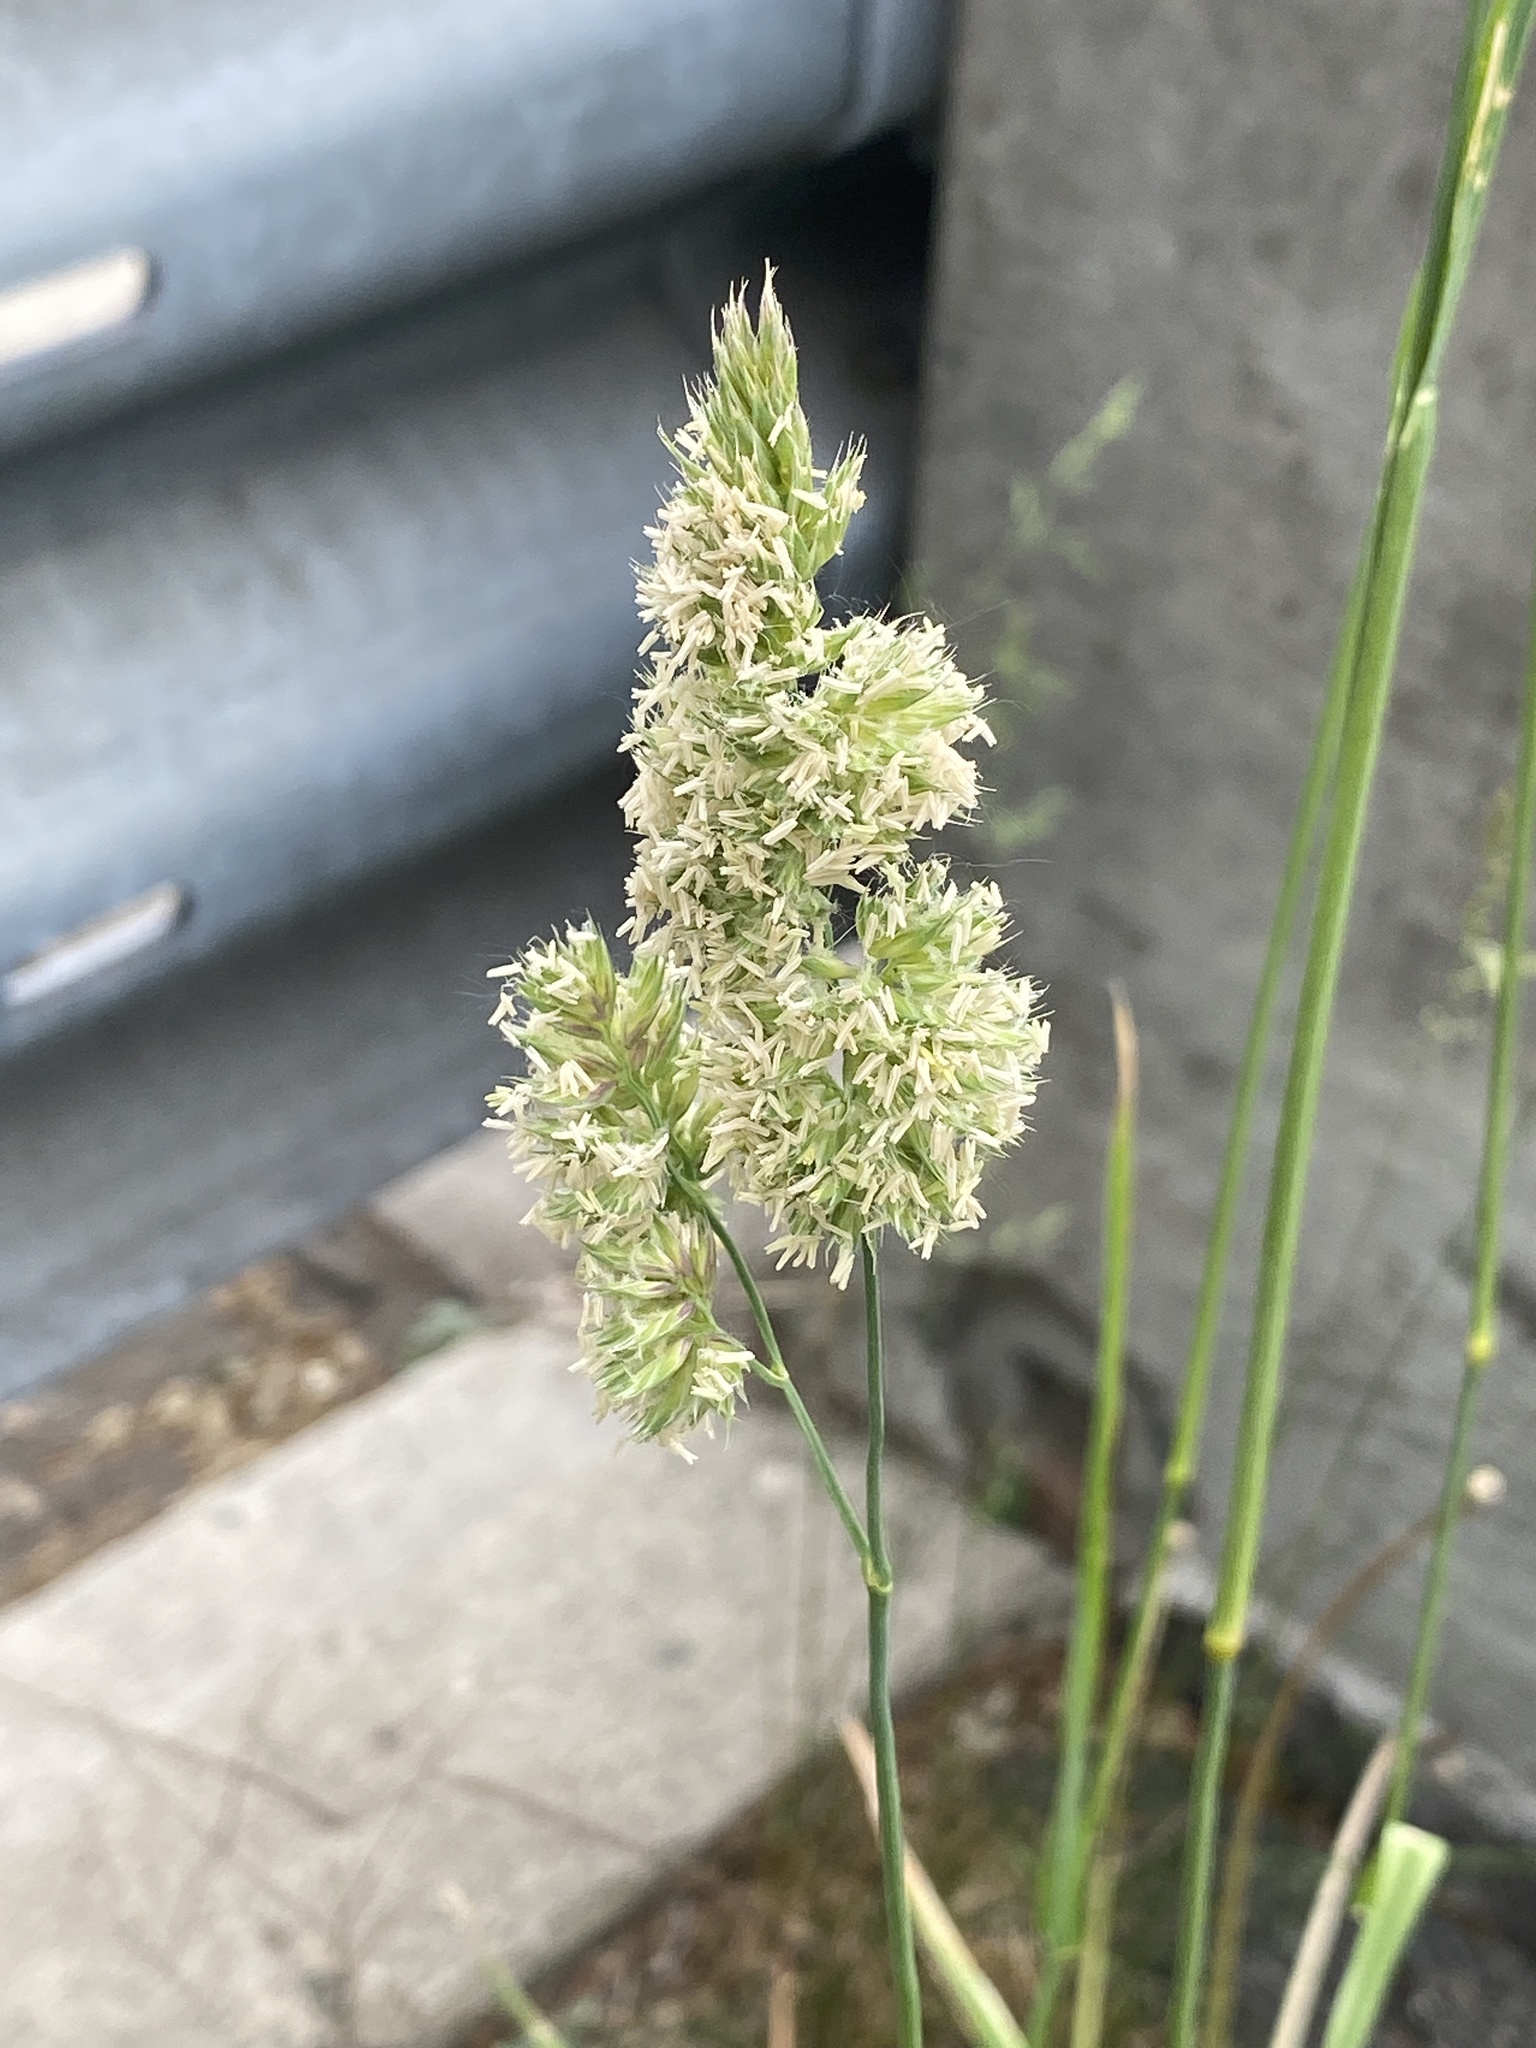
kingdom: Plantae
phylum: Tracheophyta
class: Liliopsida
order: Poales
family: Poaceae
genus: Dactylis
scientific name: Dactylis glomerata
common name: Orchardgrass
